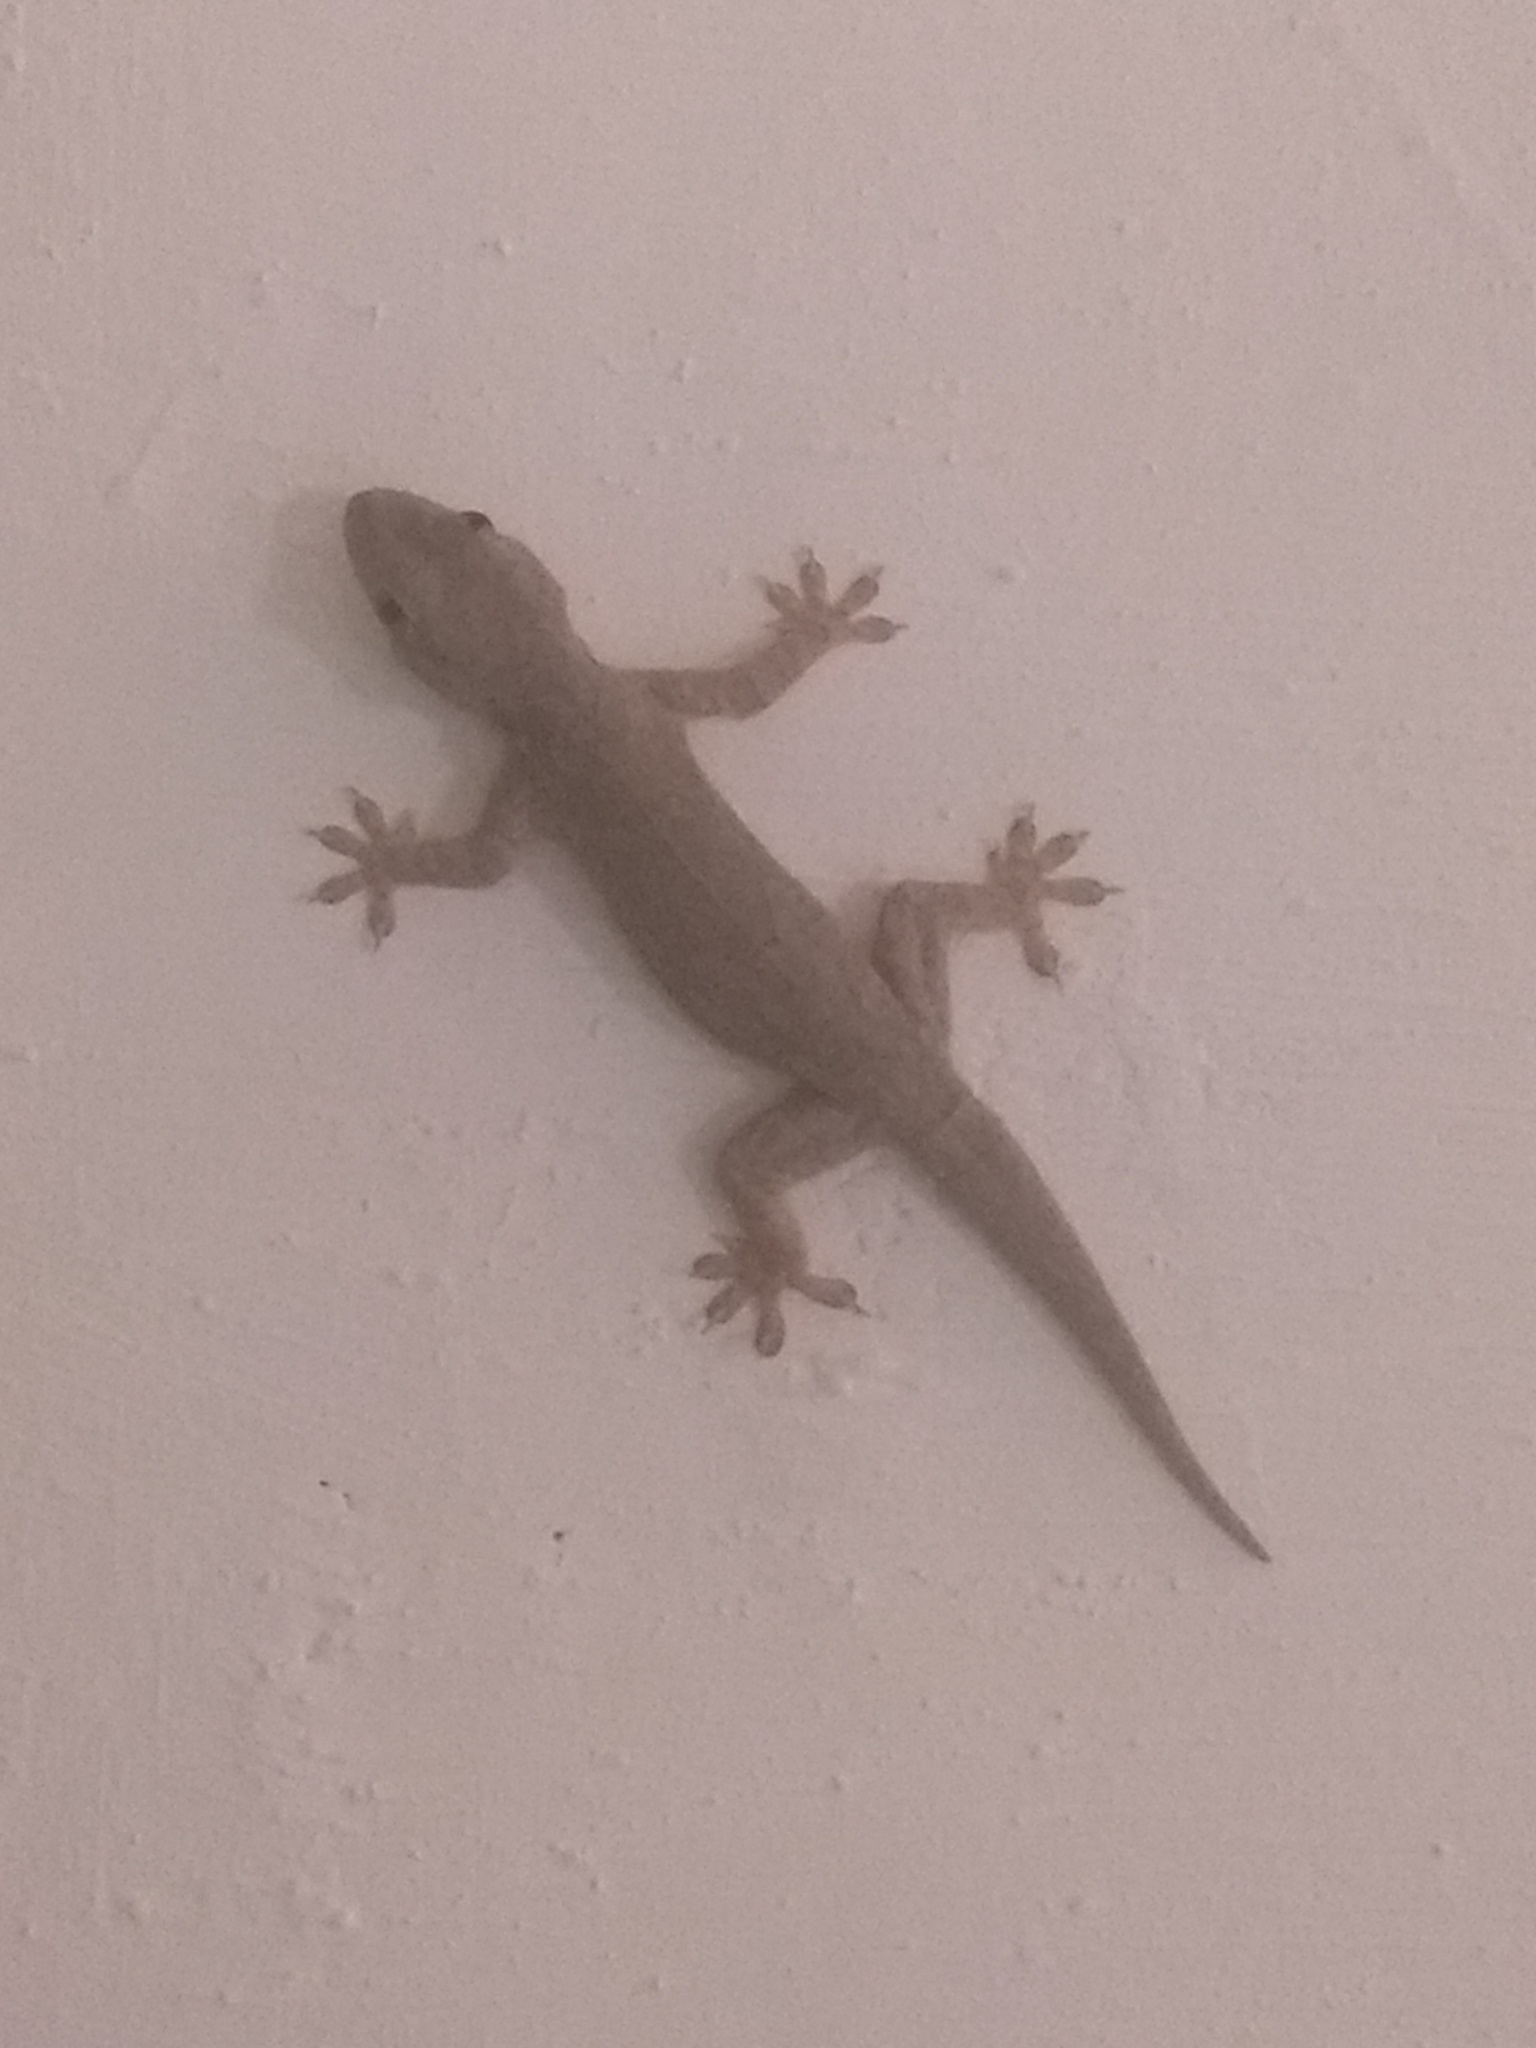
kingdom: Animalia
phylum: Chordata
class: Squamata
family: Gekkonidae
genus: Hemidactylus
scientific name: Hemidactylus leschenaultii
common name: Leschenault's leaf-toed gecko
